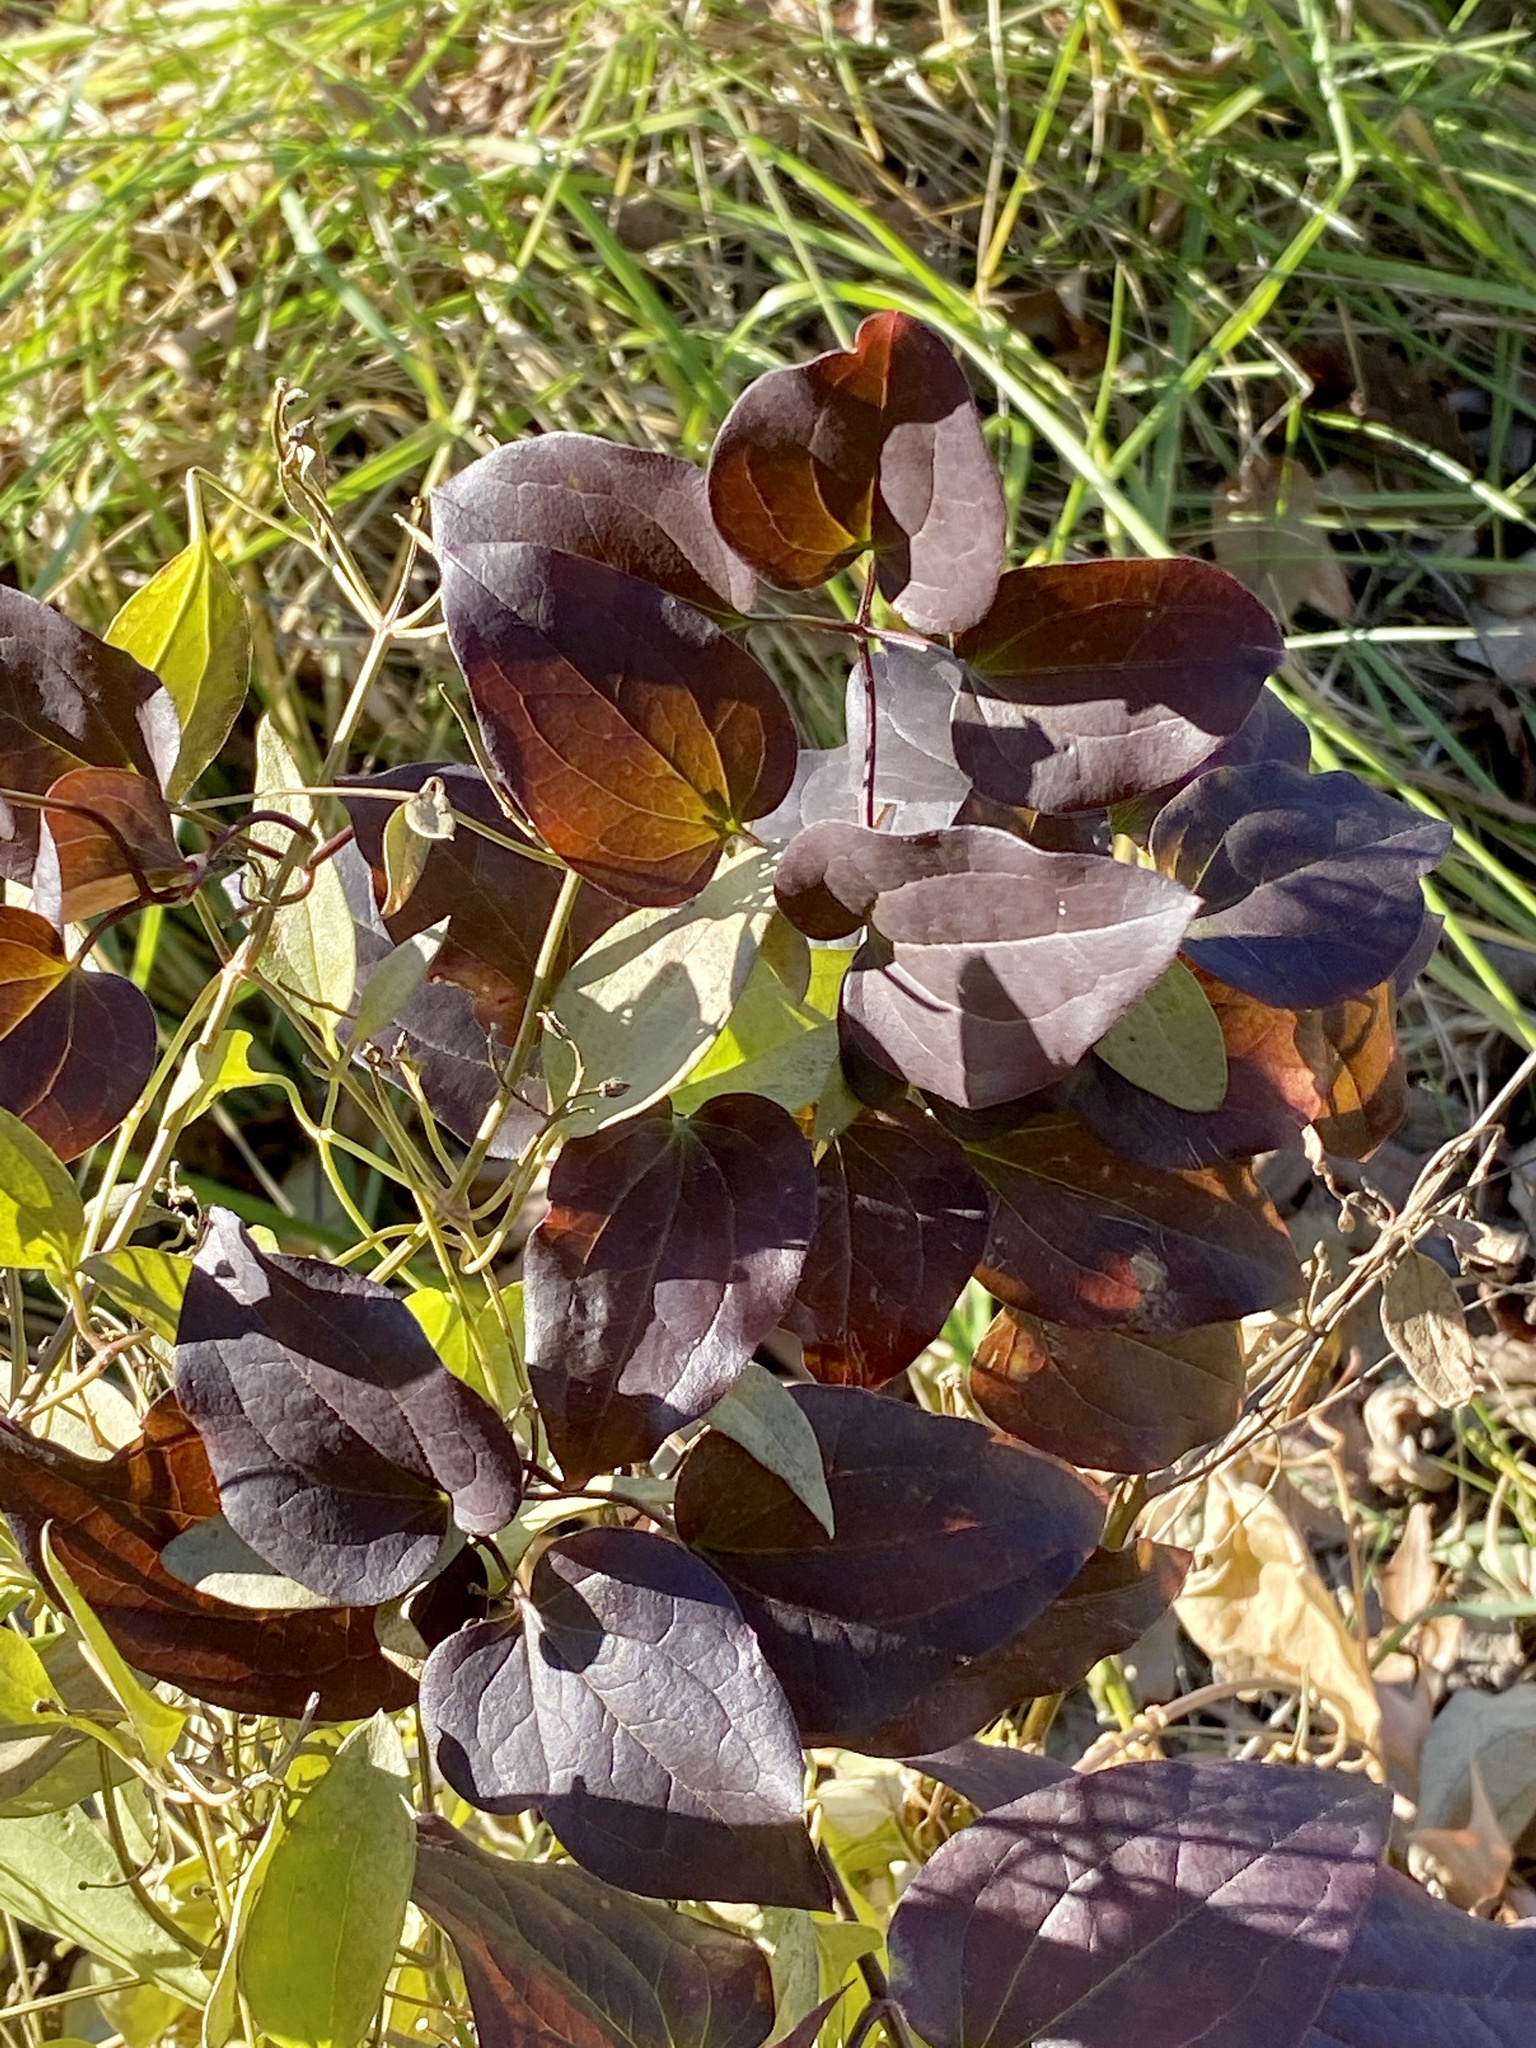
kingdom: Plantae
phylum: Tracheophyta
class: Magnoliopsida
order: Ranunculales
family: Ranunculaceae
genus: Clematis
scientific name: Clematis terniflora
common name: Sweet autumn clematis
